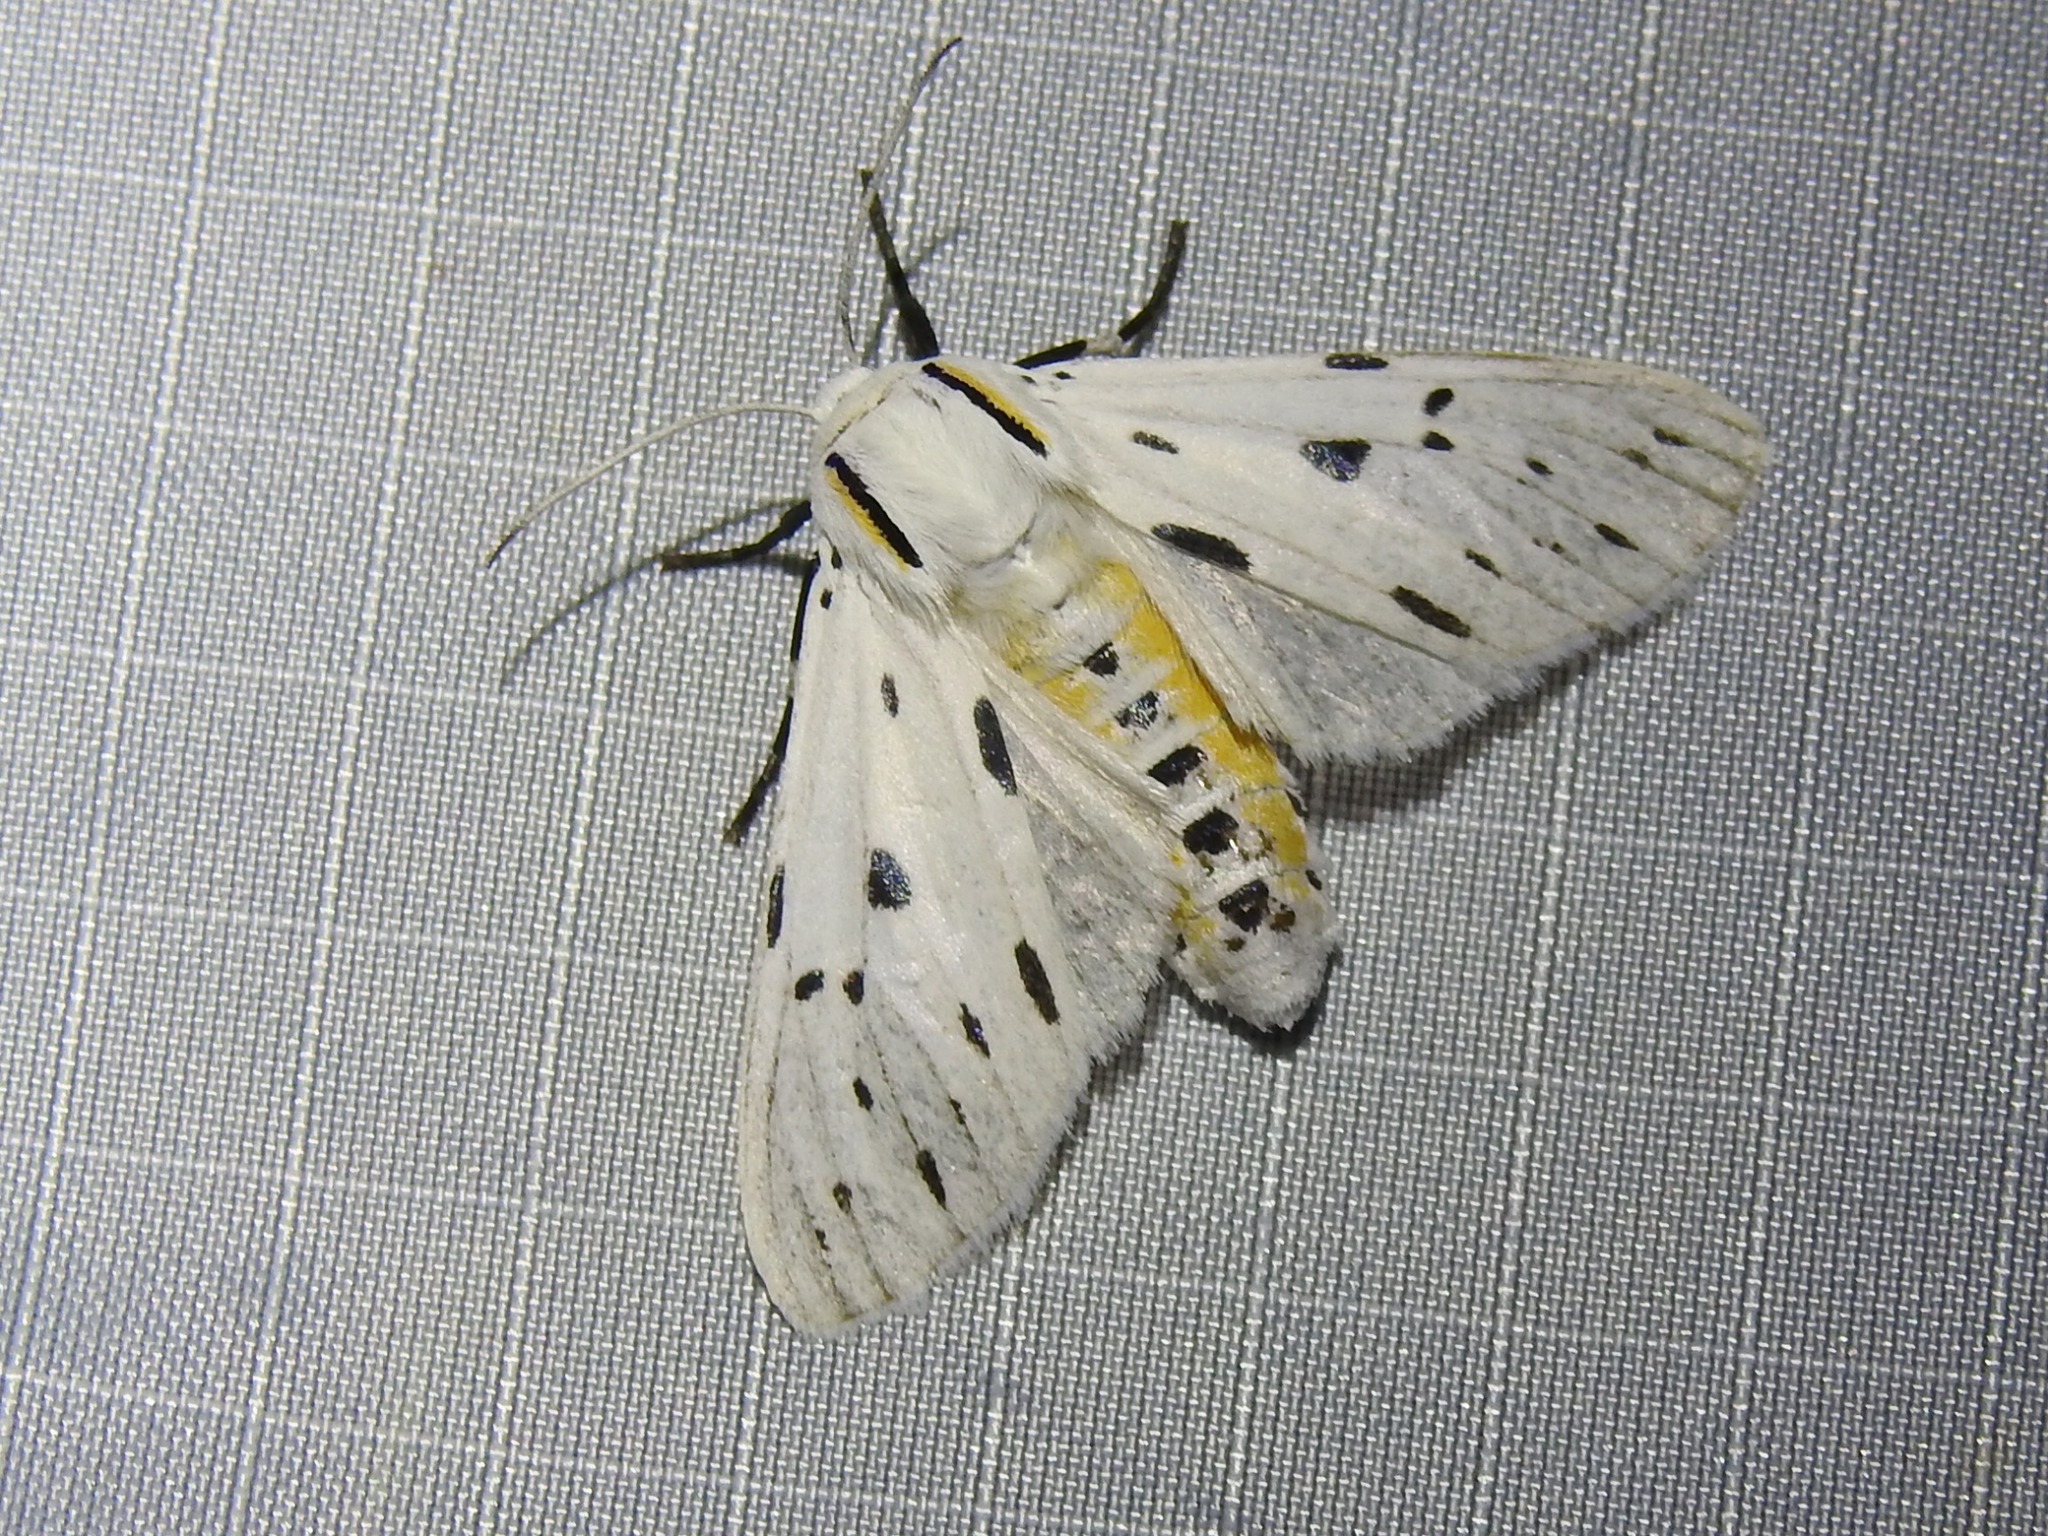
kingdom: Animalia
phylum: Arthropoda
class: Insecta
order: Lepidoptera
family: Erebidae
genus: Ectypia
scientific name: Ectypia bivittata
